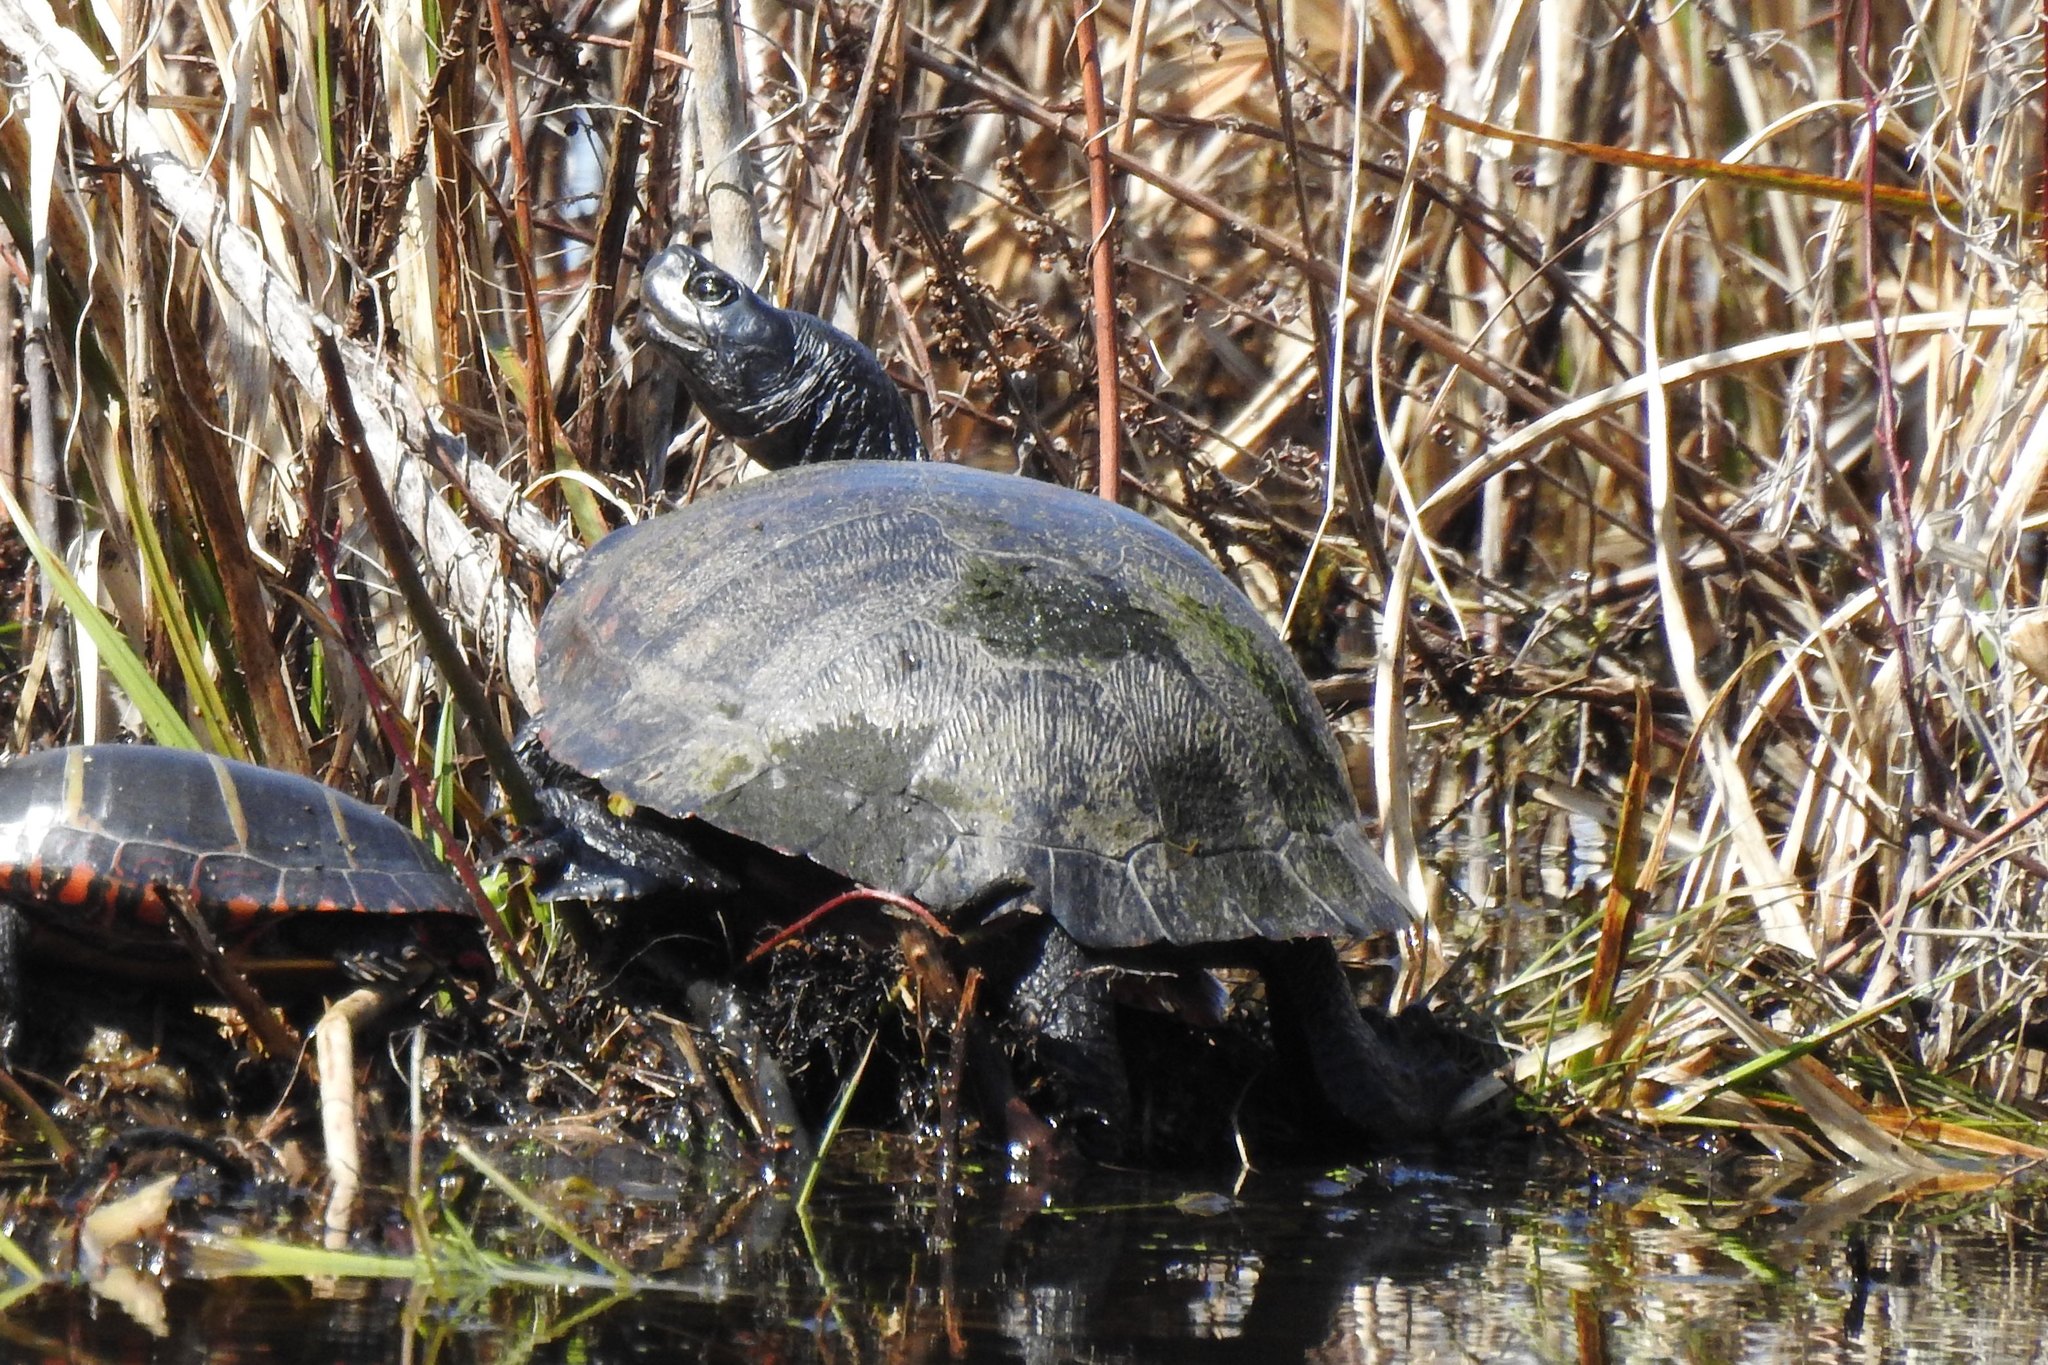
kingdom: Animalia
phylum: Chordata
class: Testudines
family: Emydidae
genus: Pseudemys
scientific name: Pseudemys rubriventris
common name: American red-bellied turtle
